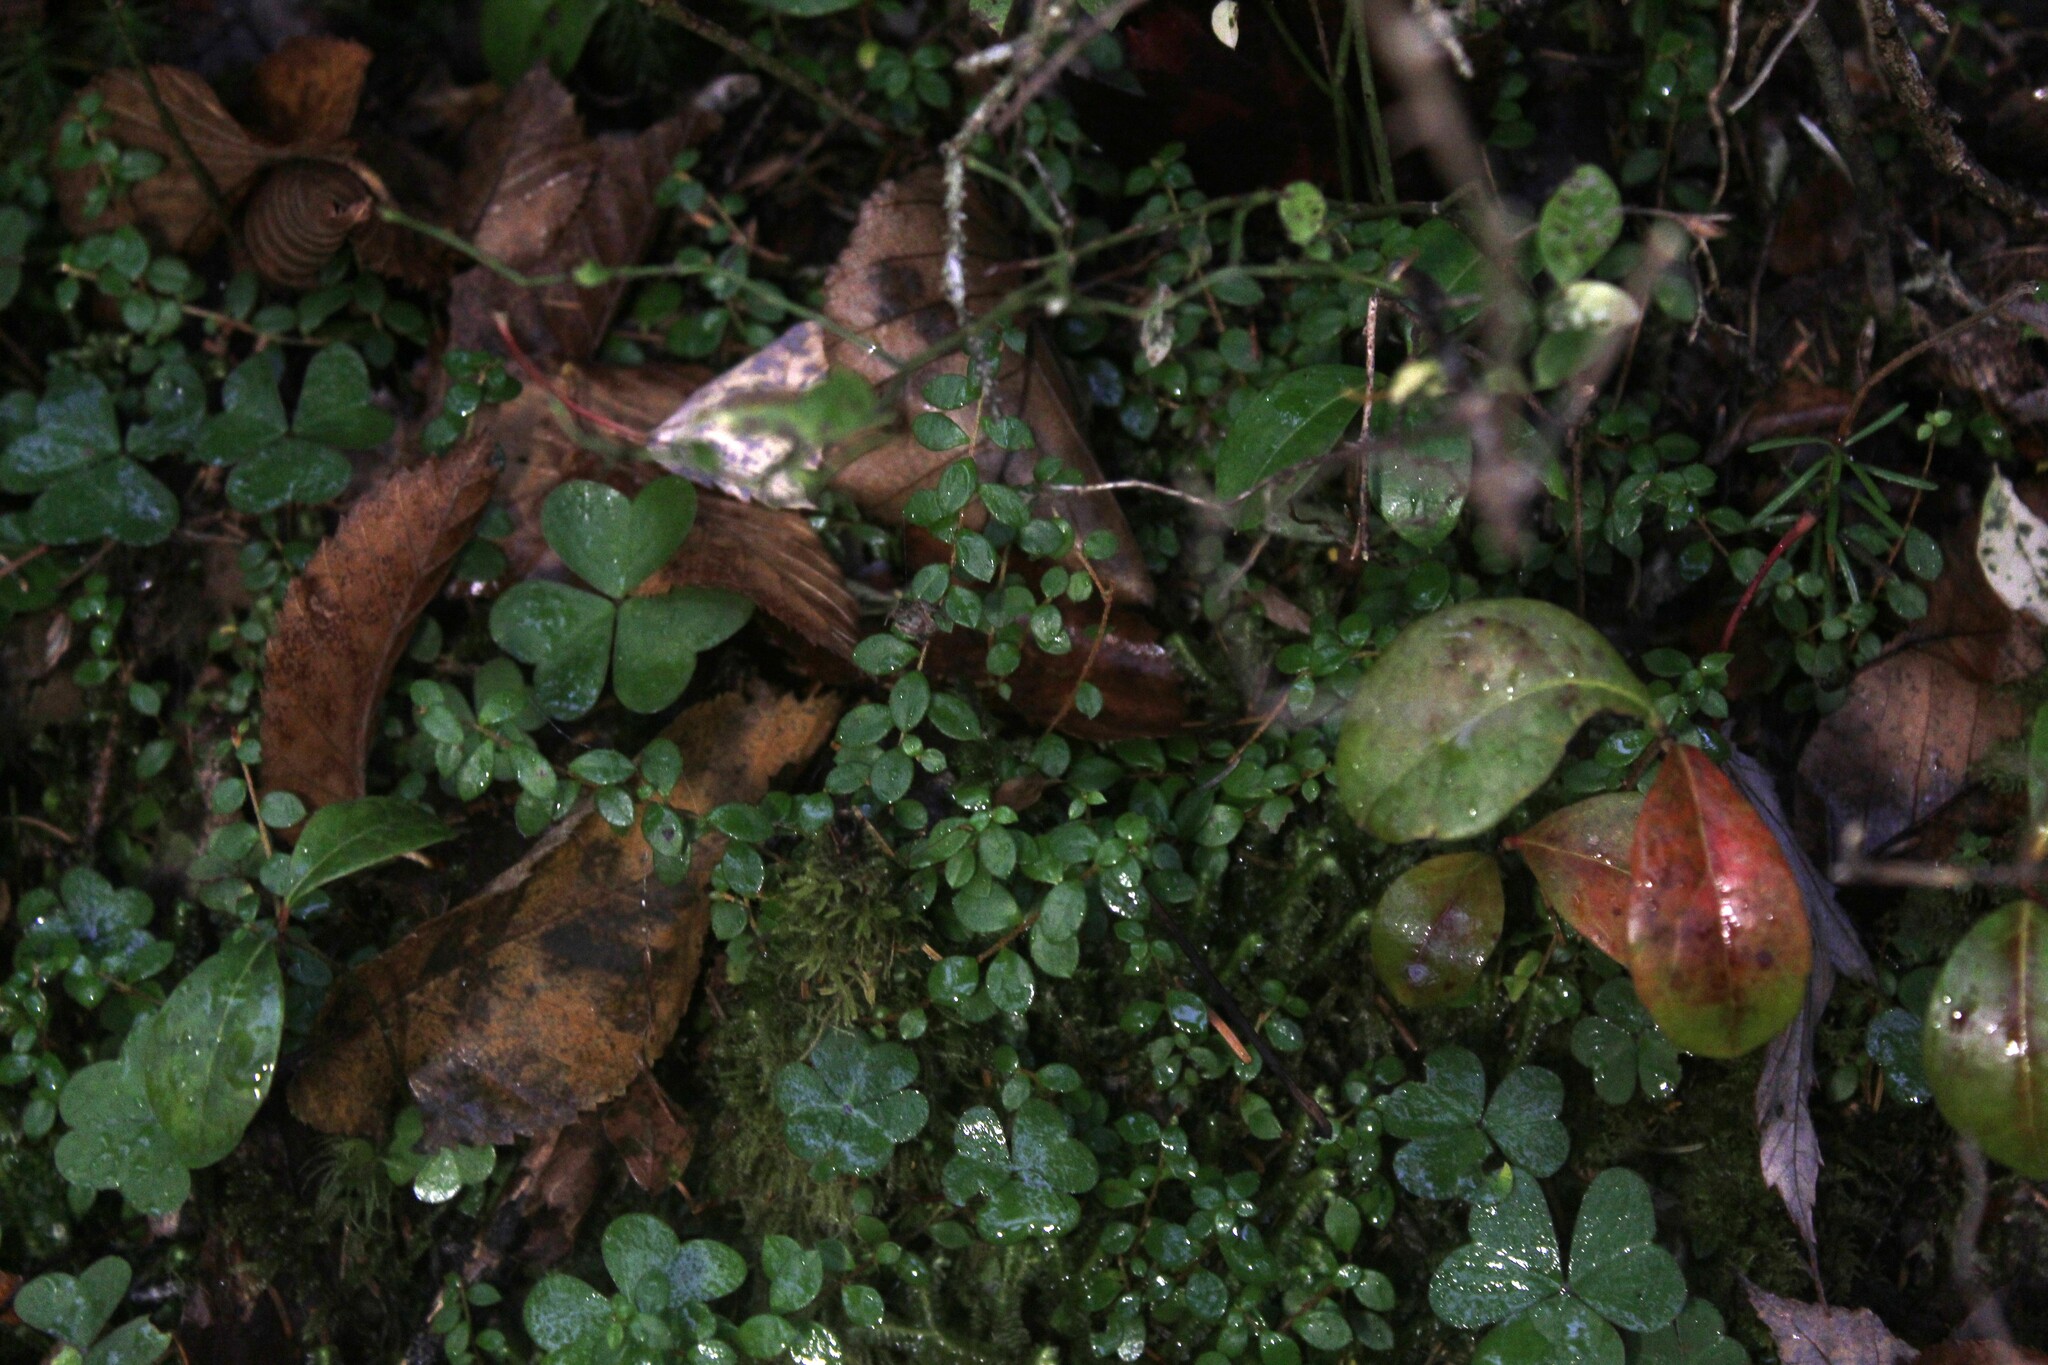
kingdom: Plantae
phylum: Tracheophyta
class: Magnoliopsida
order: Ericales
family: Ericaceae
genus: Gaultheria
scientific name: Gaultheria hispidula
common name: Cancer wintergreen
